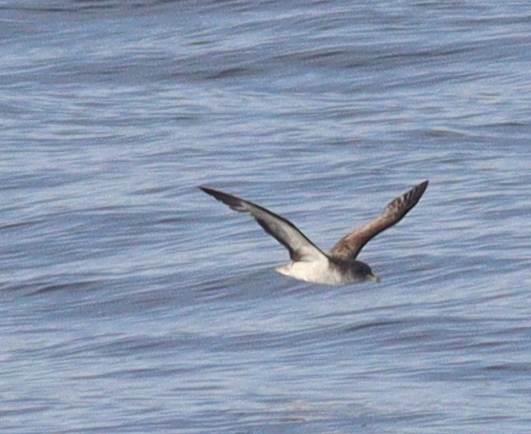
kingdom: Animalia
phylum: Chordata
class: Aves
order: Procellariiformes
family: Procellariidae
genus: Calonectris
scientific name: Calonectris diomedea
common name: Cory's shearwater
